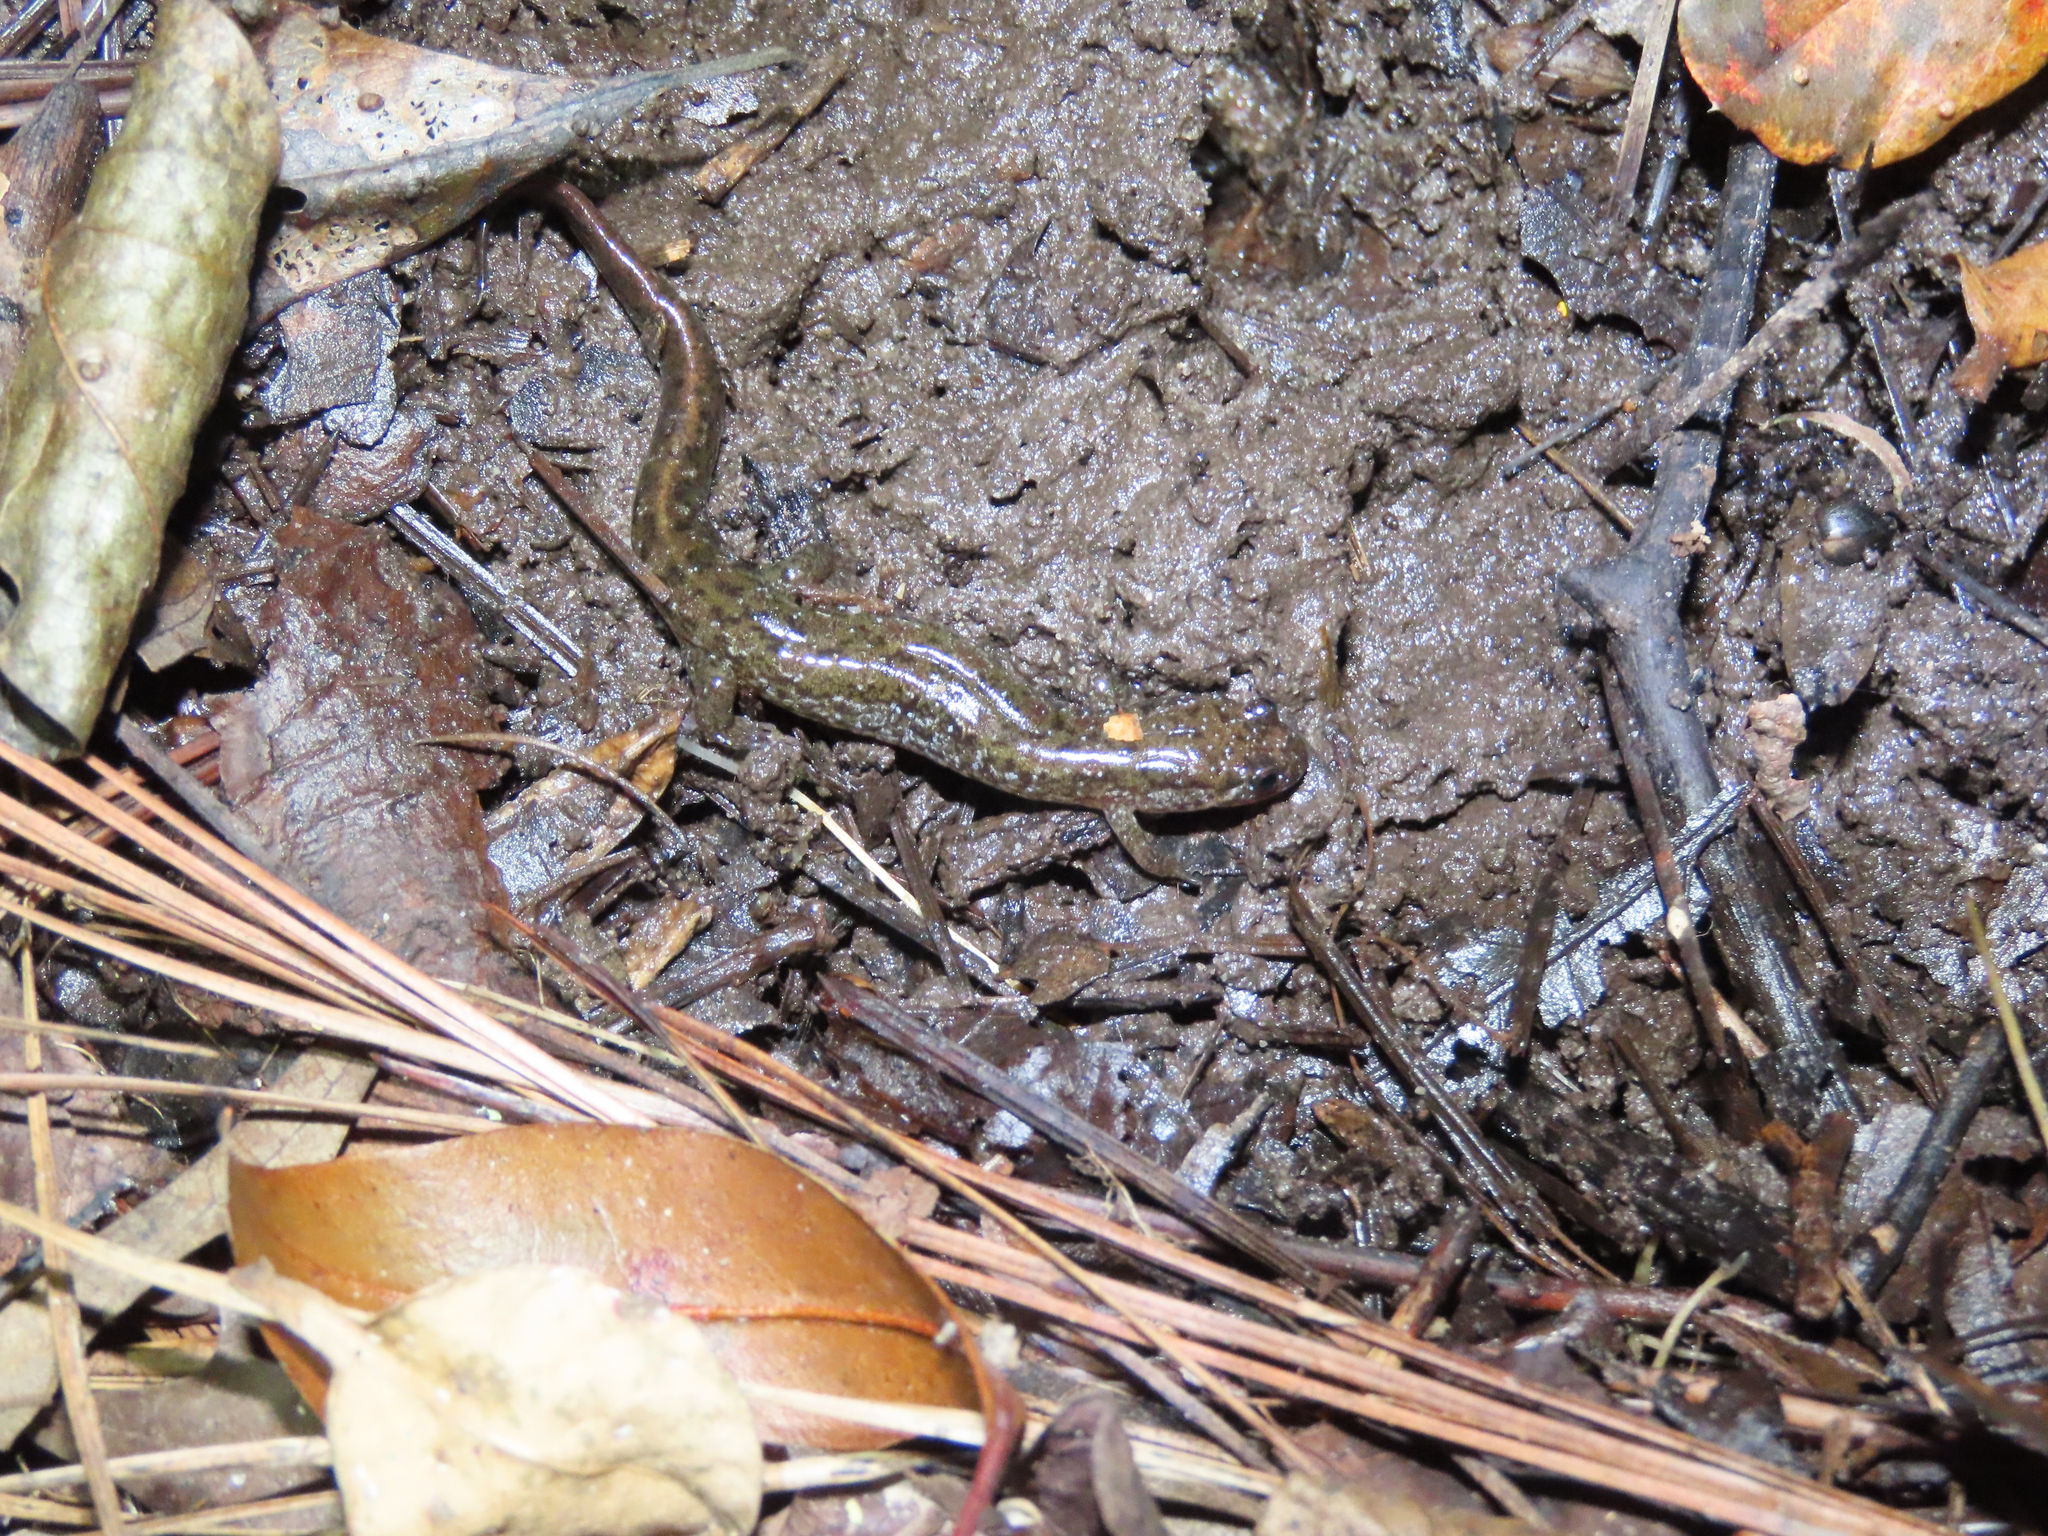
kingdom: Animalia
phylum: Chordata
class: Amphibia
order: Caudata
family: Plethodontidae
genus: Desmognathus
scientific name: Desmognathus fuscus
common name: Northern dusky salamander
